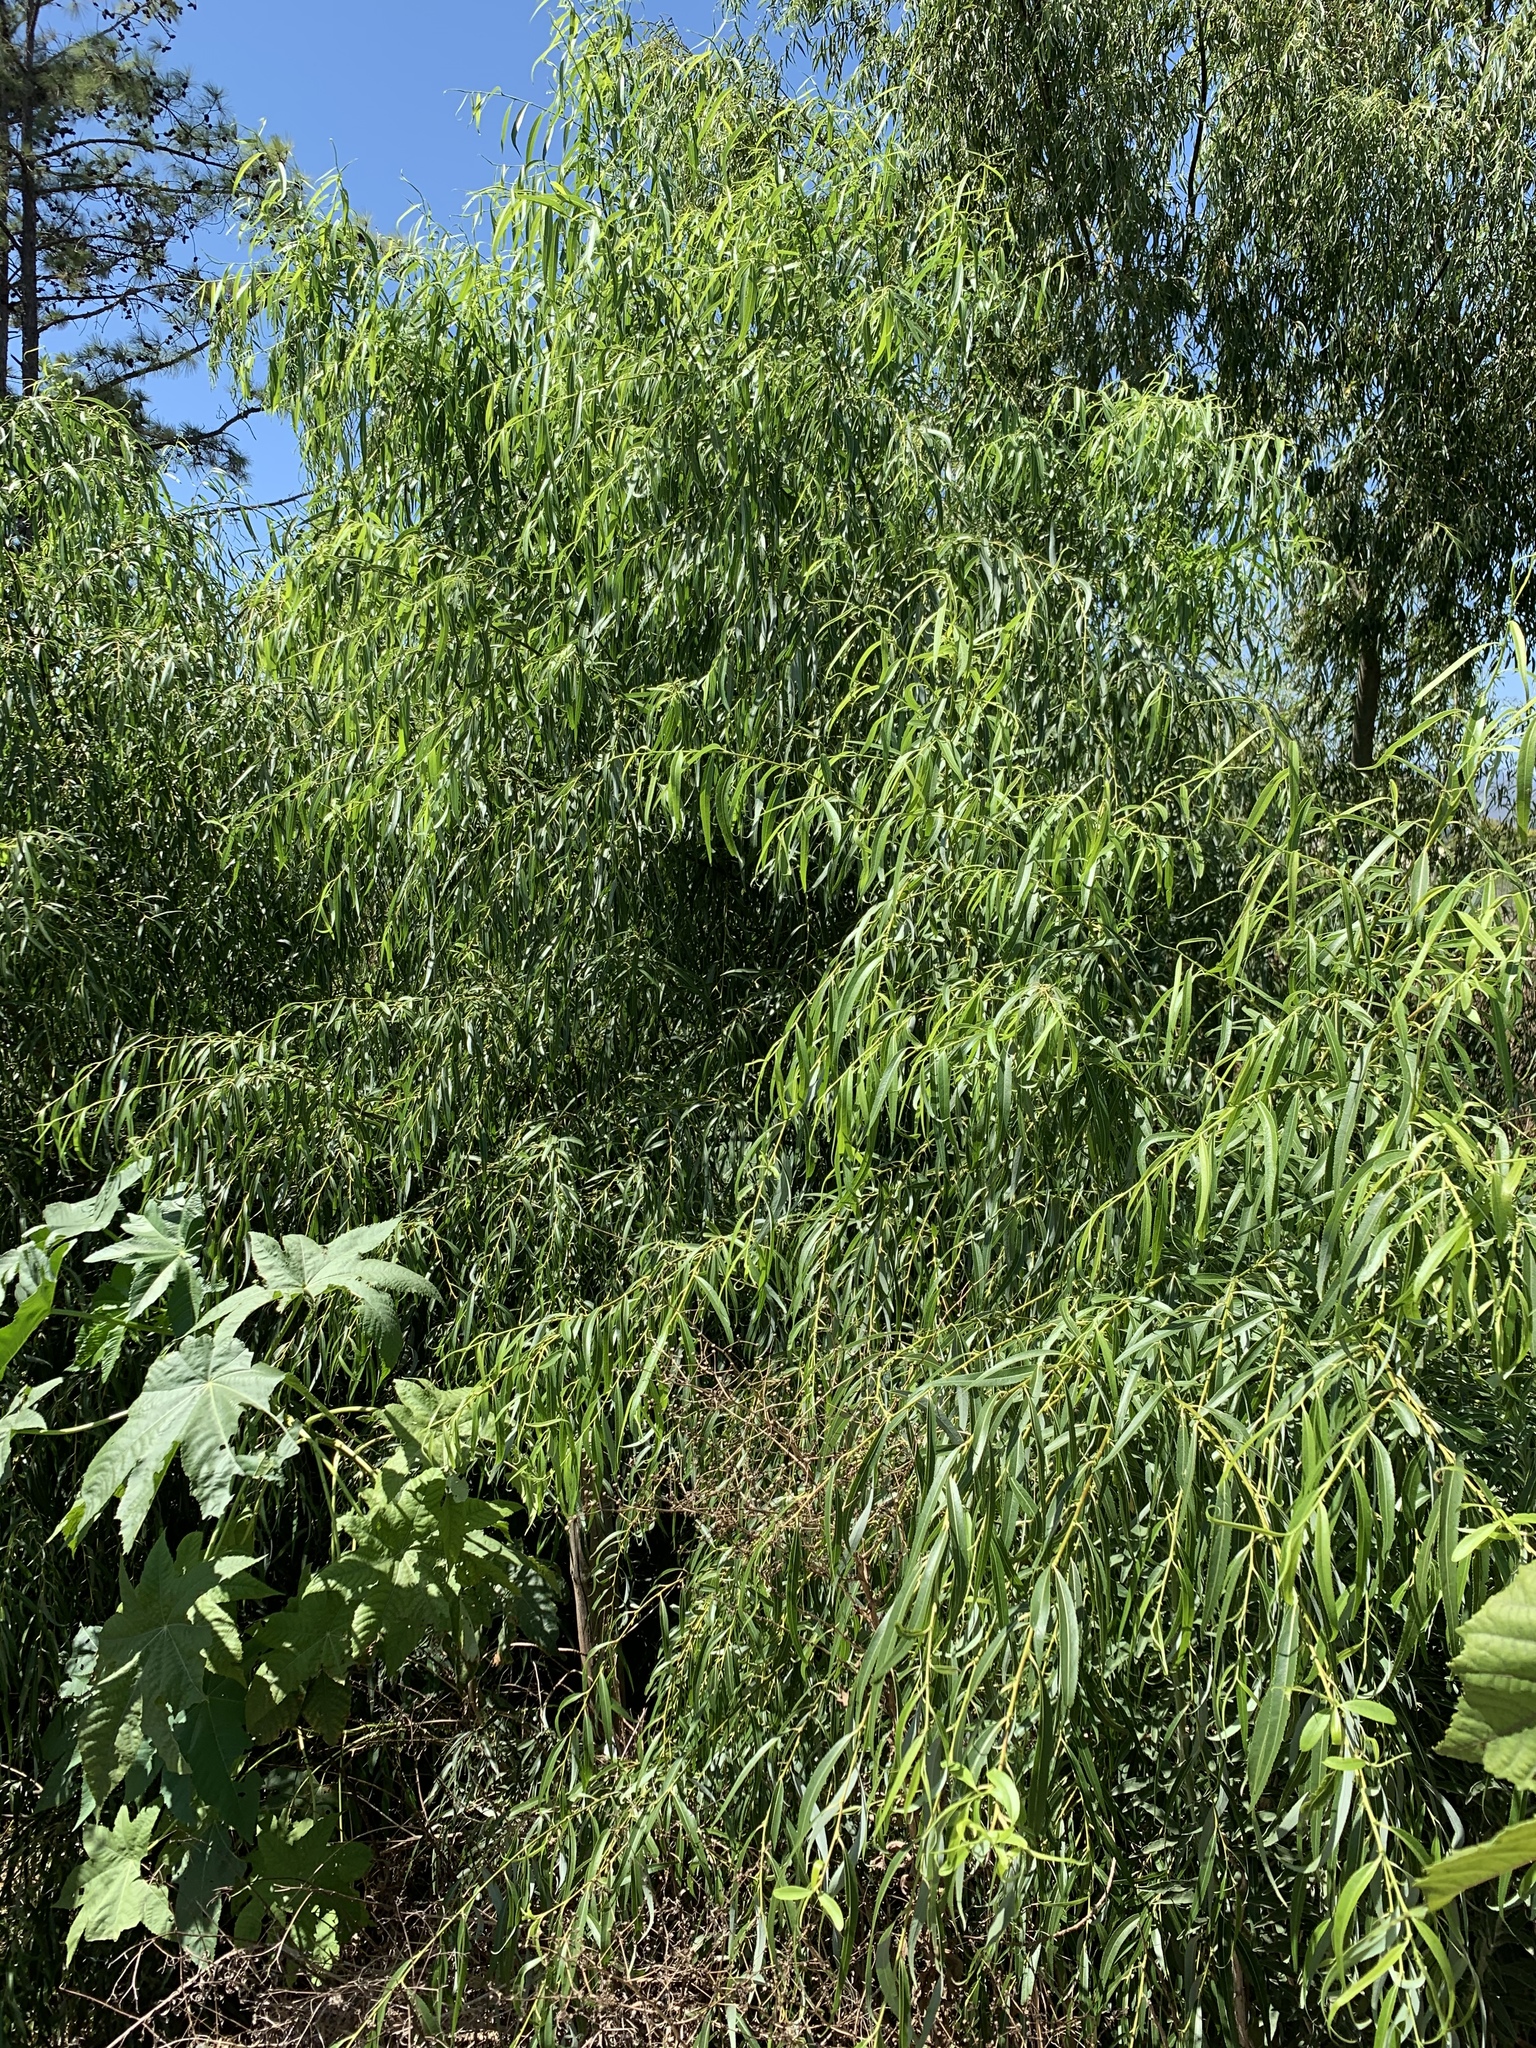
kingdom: Plantae
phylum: Tracheophyta
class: Magnoliopsida
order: Malpighiales
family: Salicaceae
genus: Salix
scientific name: Salix babylonica
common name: Weeping willow
